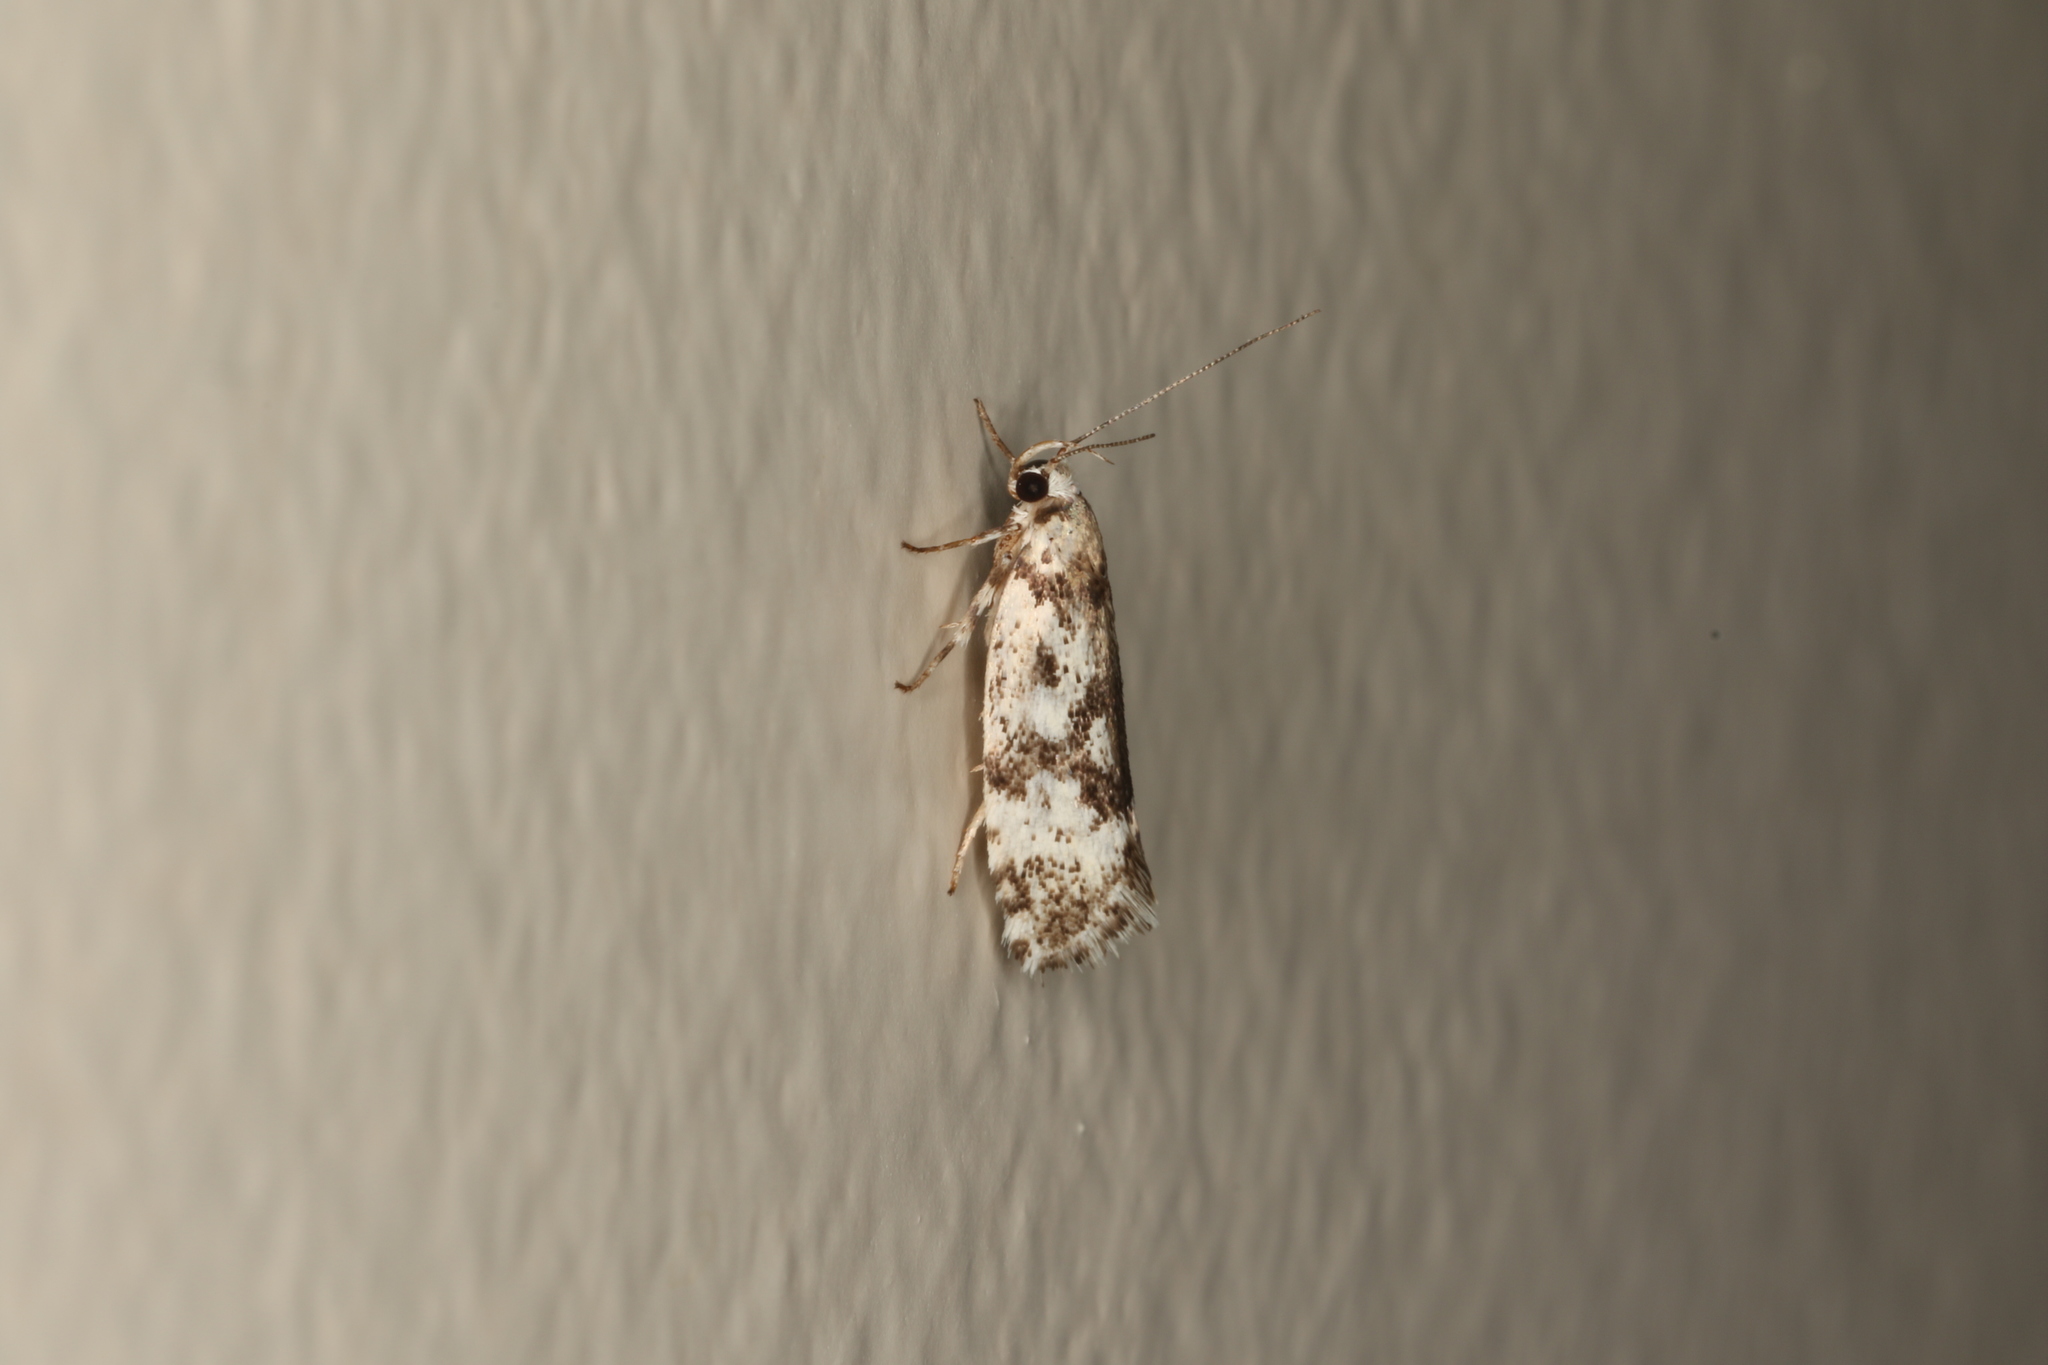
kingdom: Animalia
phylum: Arthropoda
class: Insecta
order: Lepidoptera
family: Xyloryctidae
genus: Lichenaula
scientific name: Lichenaula lichenea
